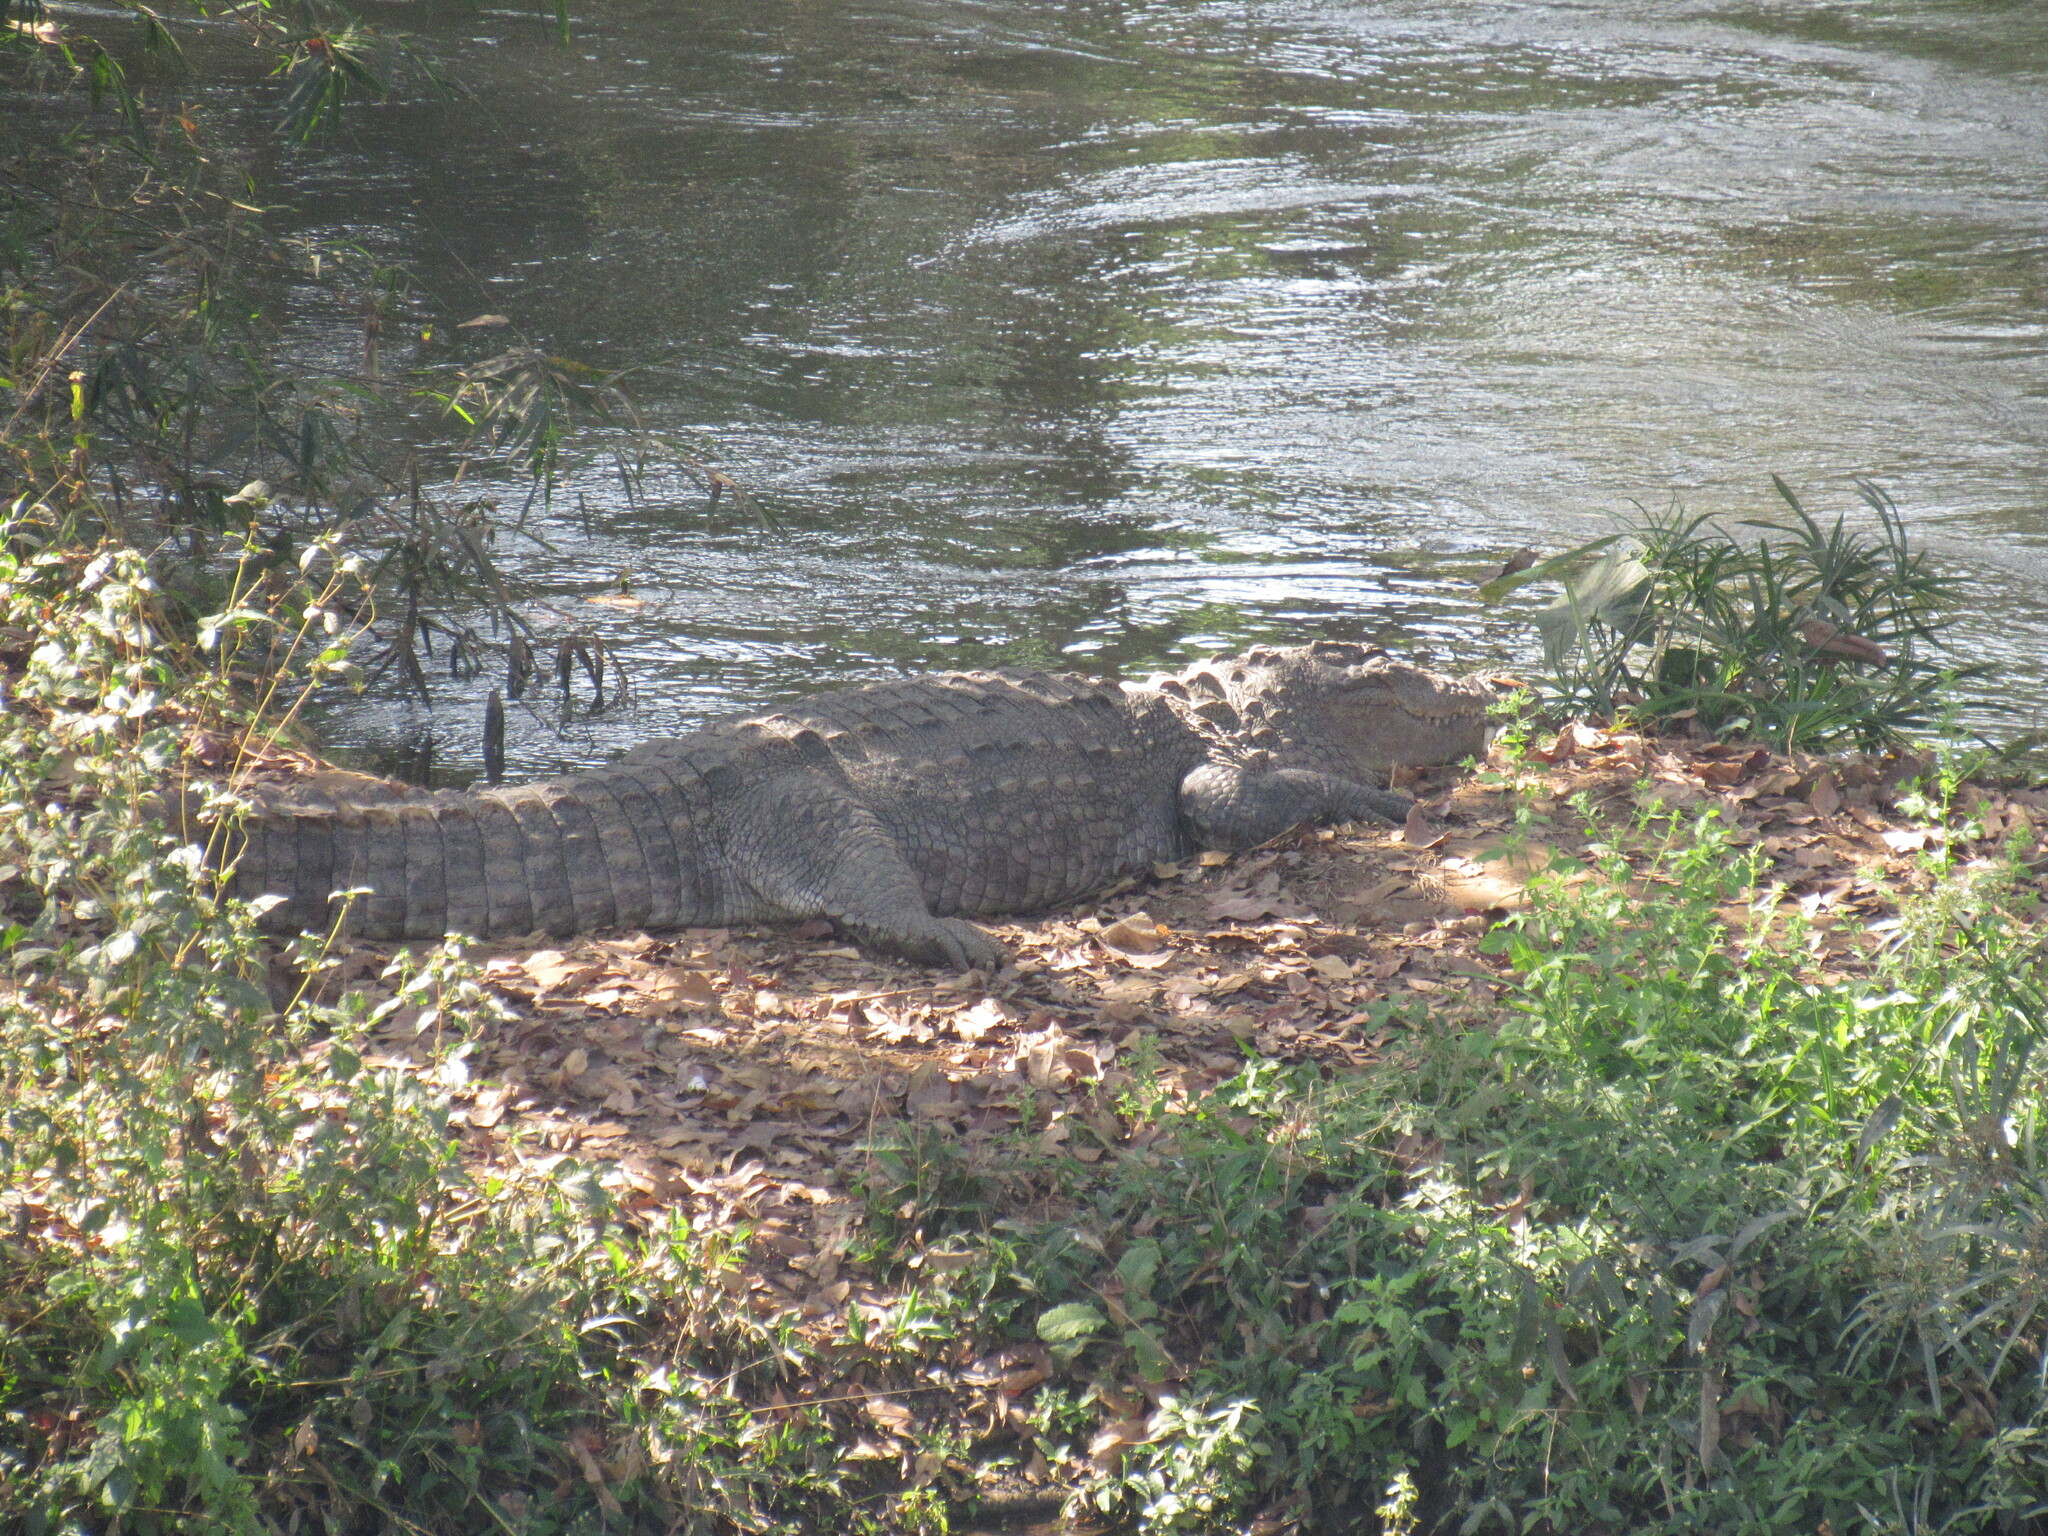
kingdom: Animalia
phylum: Chordata
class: Crocodylia
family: Crocodylidae
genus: Crocodylus
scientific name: Crocodylus palustris
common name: Mugger crocodile
